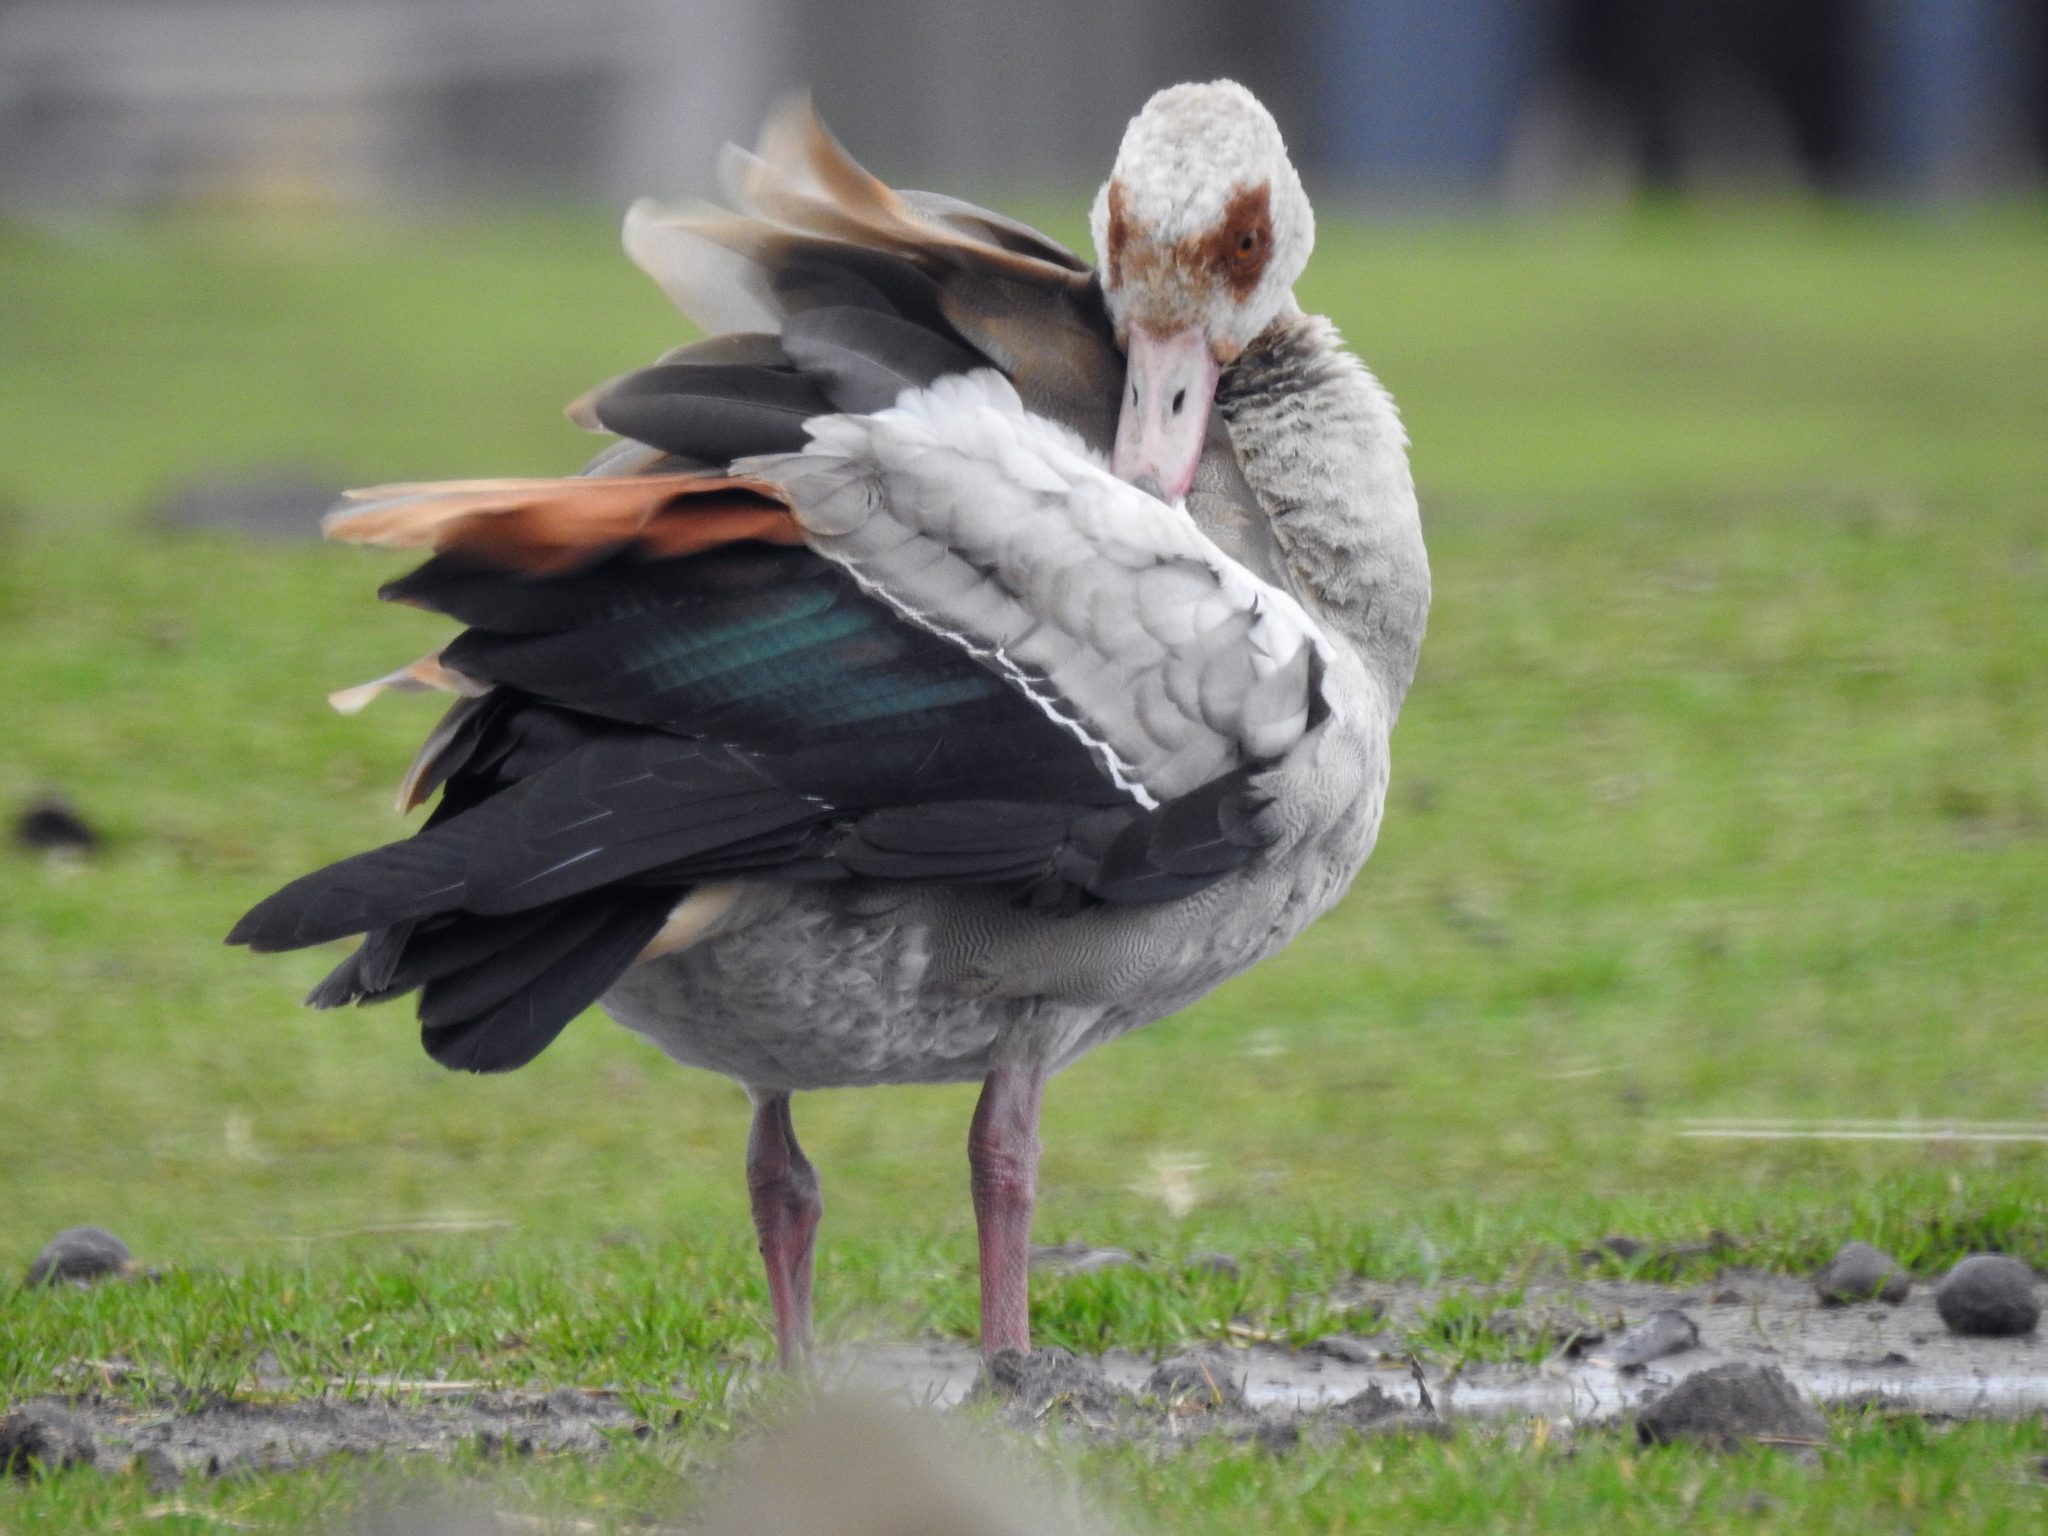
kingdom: Animalia
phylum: Chordata
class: Aves
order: Anseriformes
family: Anatidae
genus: Alopochen
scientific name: Alopochen aegyptiaca
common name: Egyptian goose
